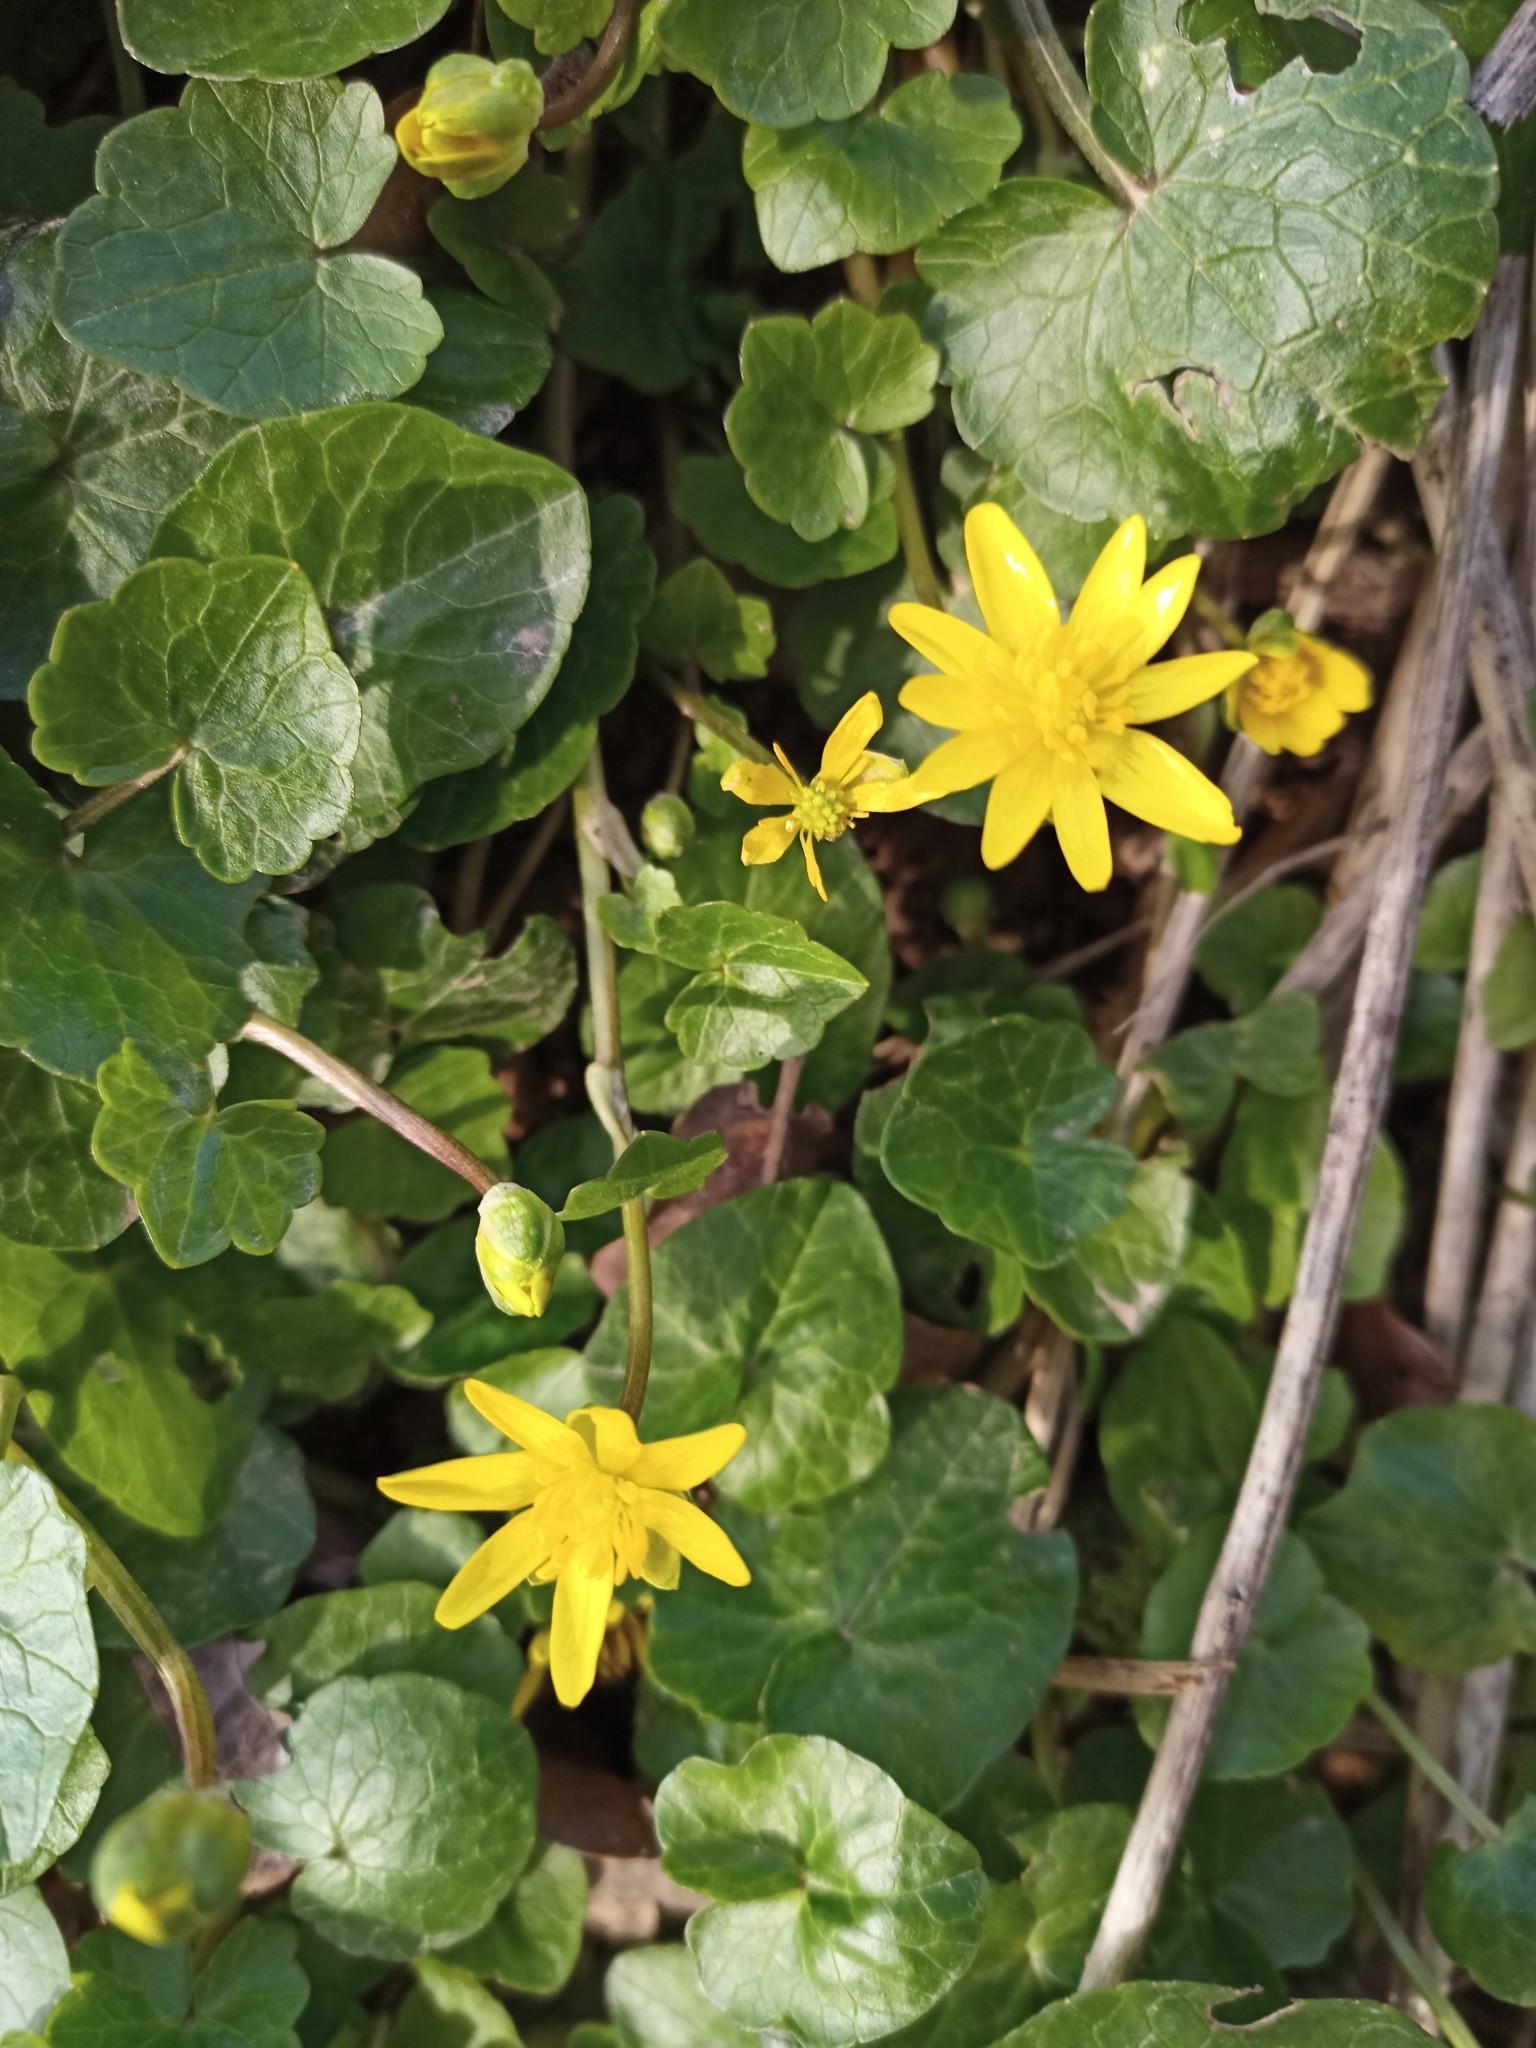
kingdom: Plantae
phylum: Tracheophyta
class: Magnoliopsida
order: Ranunculales
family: Ranunculaceae
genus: Ficaria
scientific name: Ficaria verna
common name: Lesser celandine
